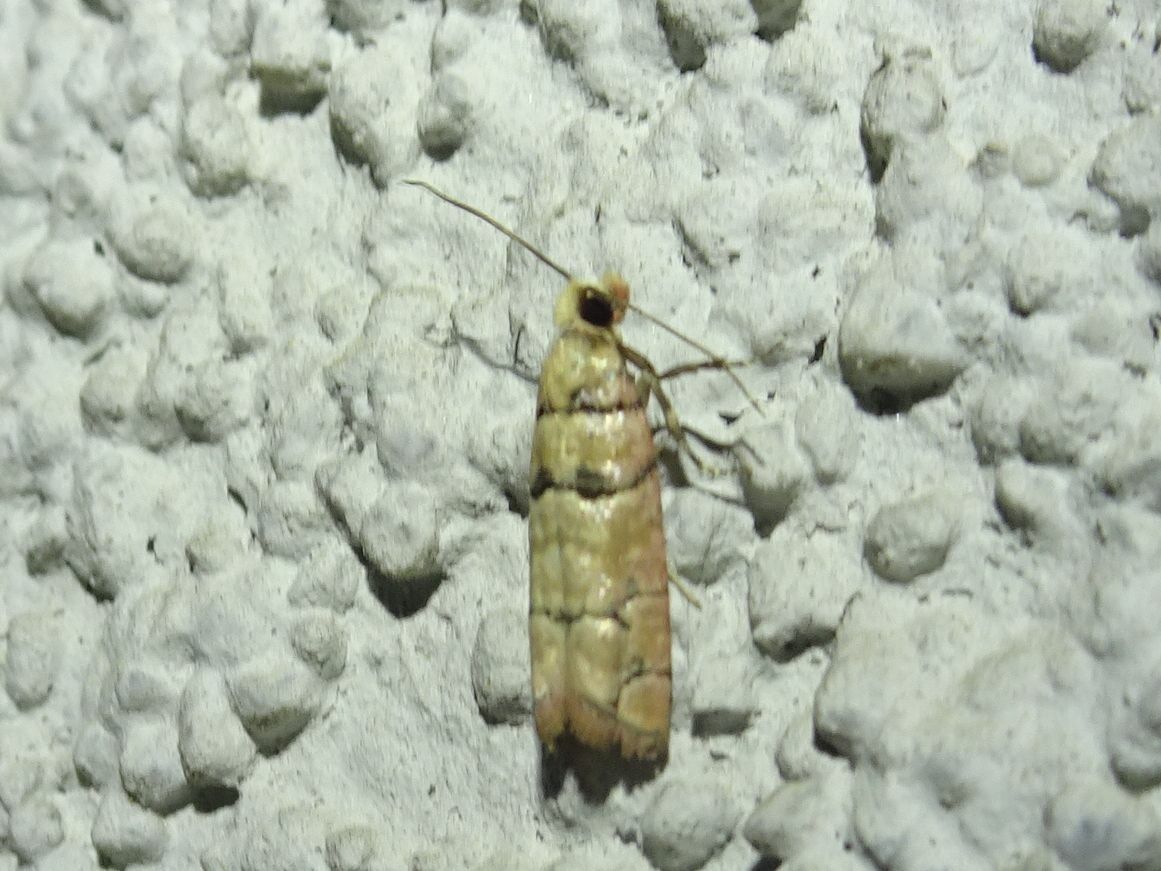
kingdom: Animalia
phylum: Arthropoda
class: Insecta
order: Lepidoptera
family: Tortricidae
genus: Blastesthia
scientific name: Blastesthia tessulatana
